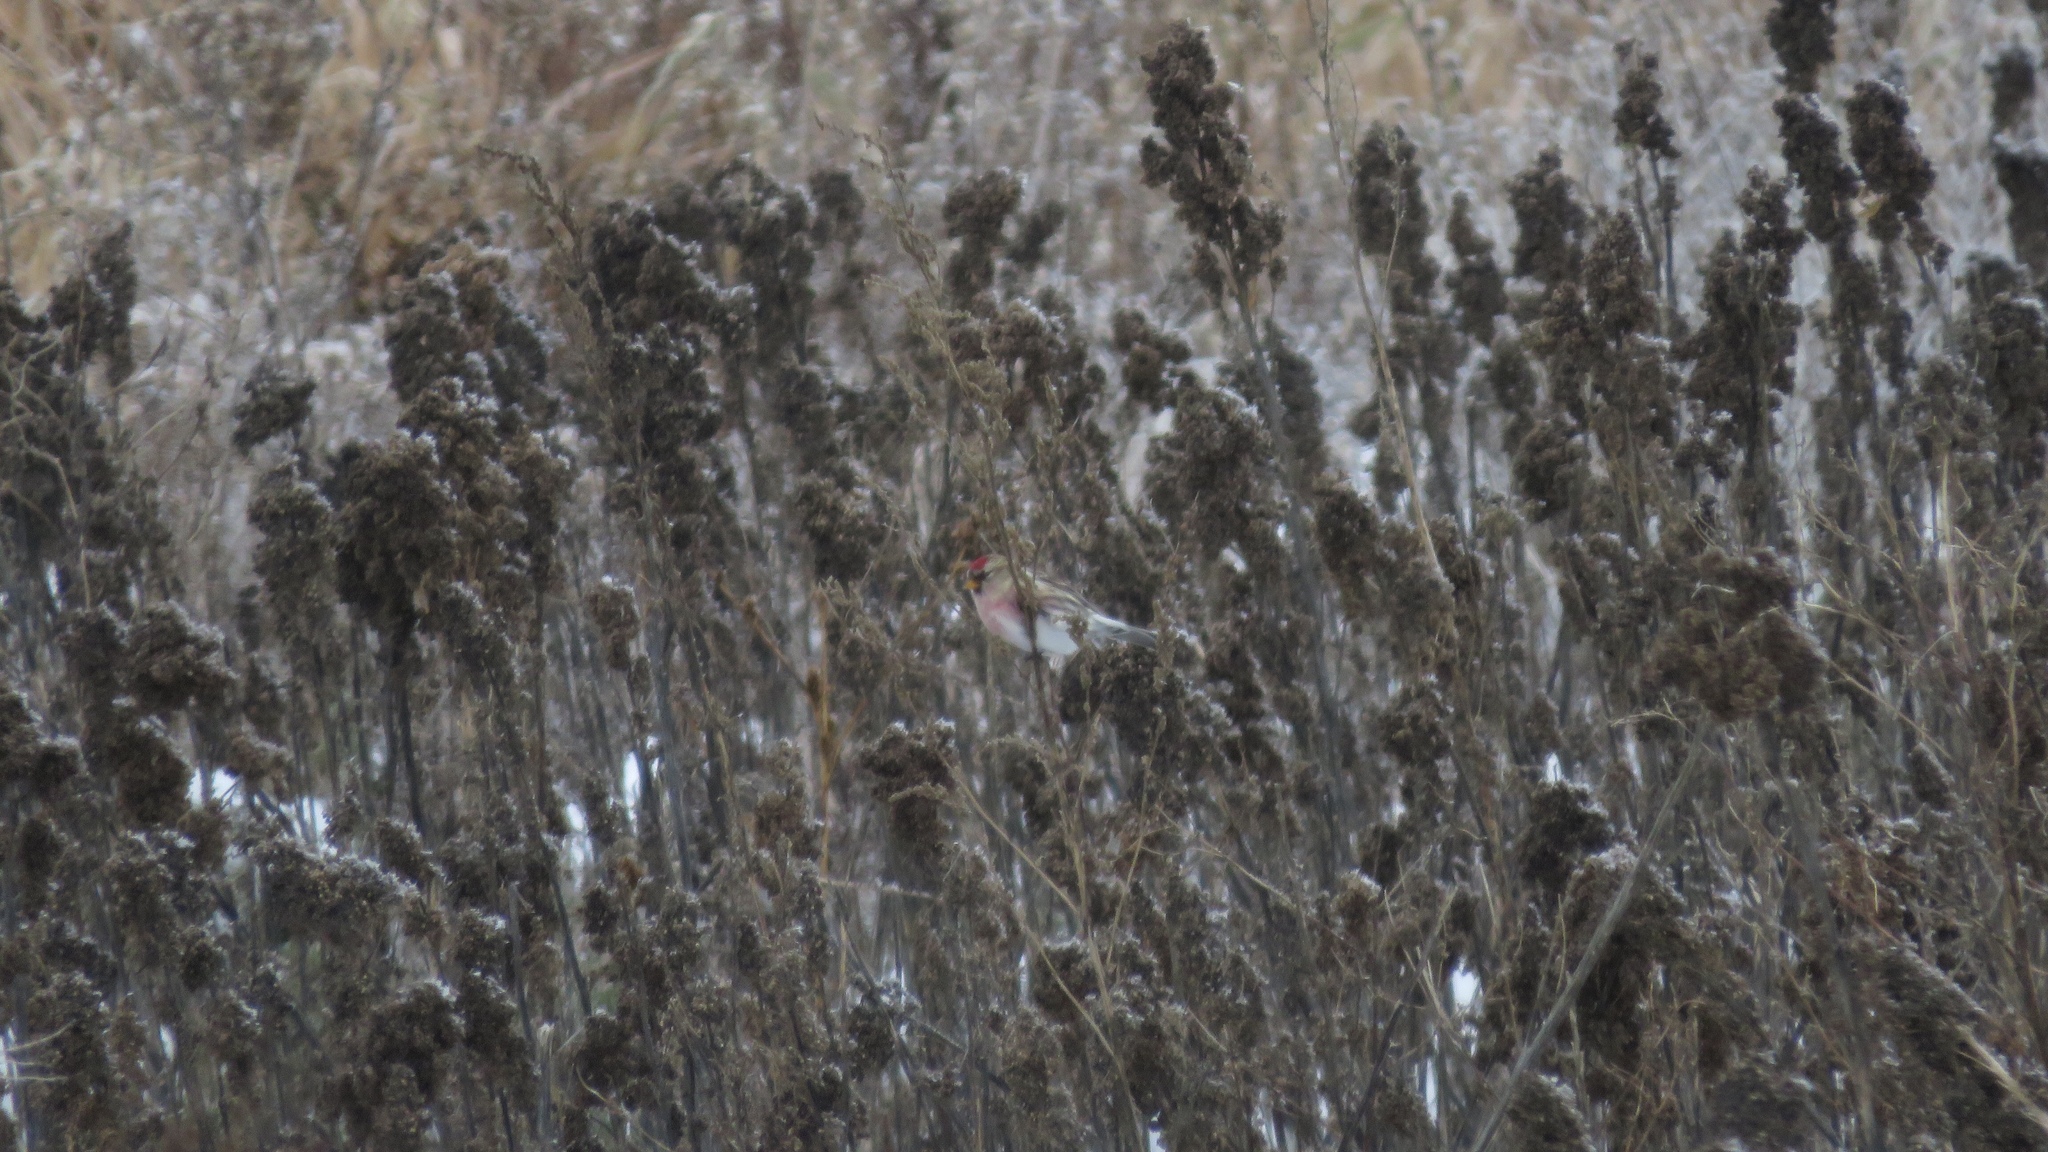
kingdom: Animalia
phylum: Chordata
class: Aves
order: Passeriformes
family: Fringillidae
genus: Acanthis
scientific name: Acanthis flammea
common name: Common redpoll
